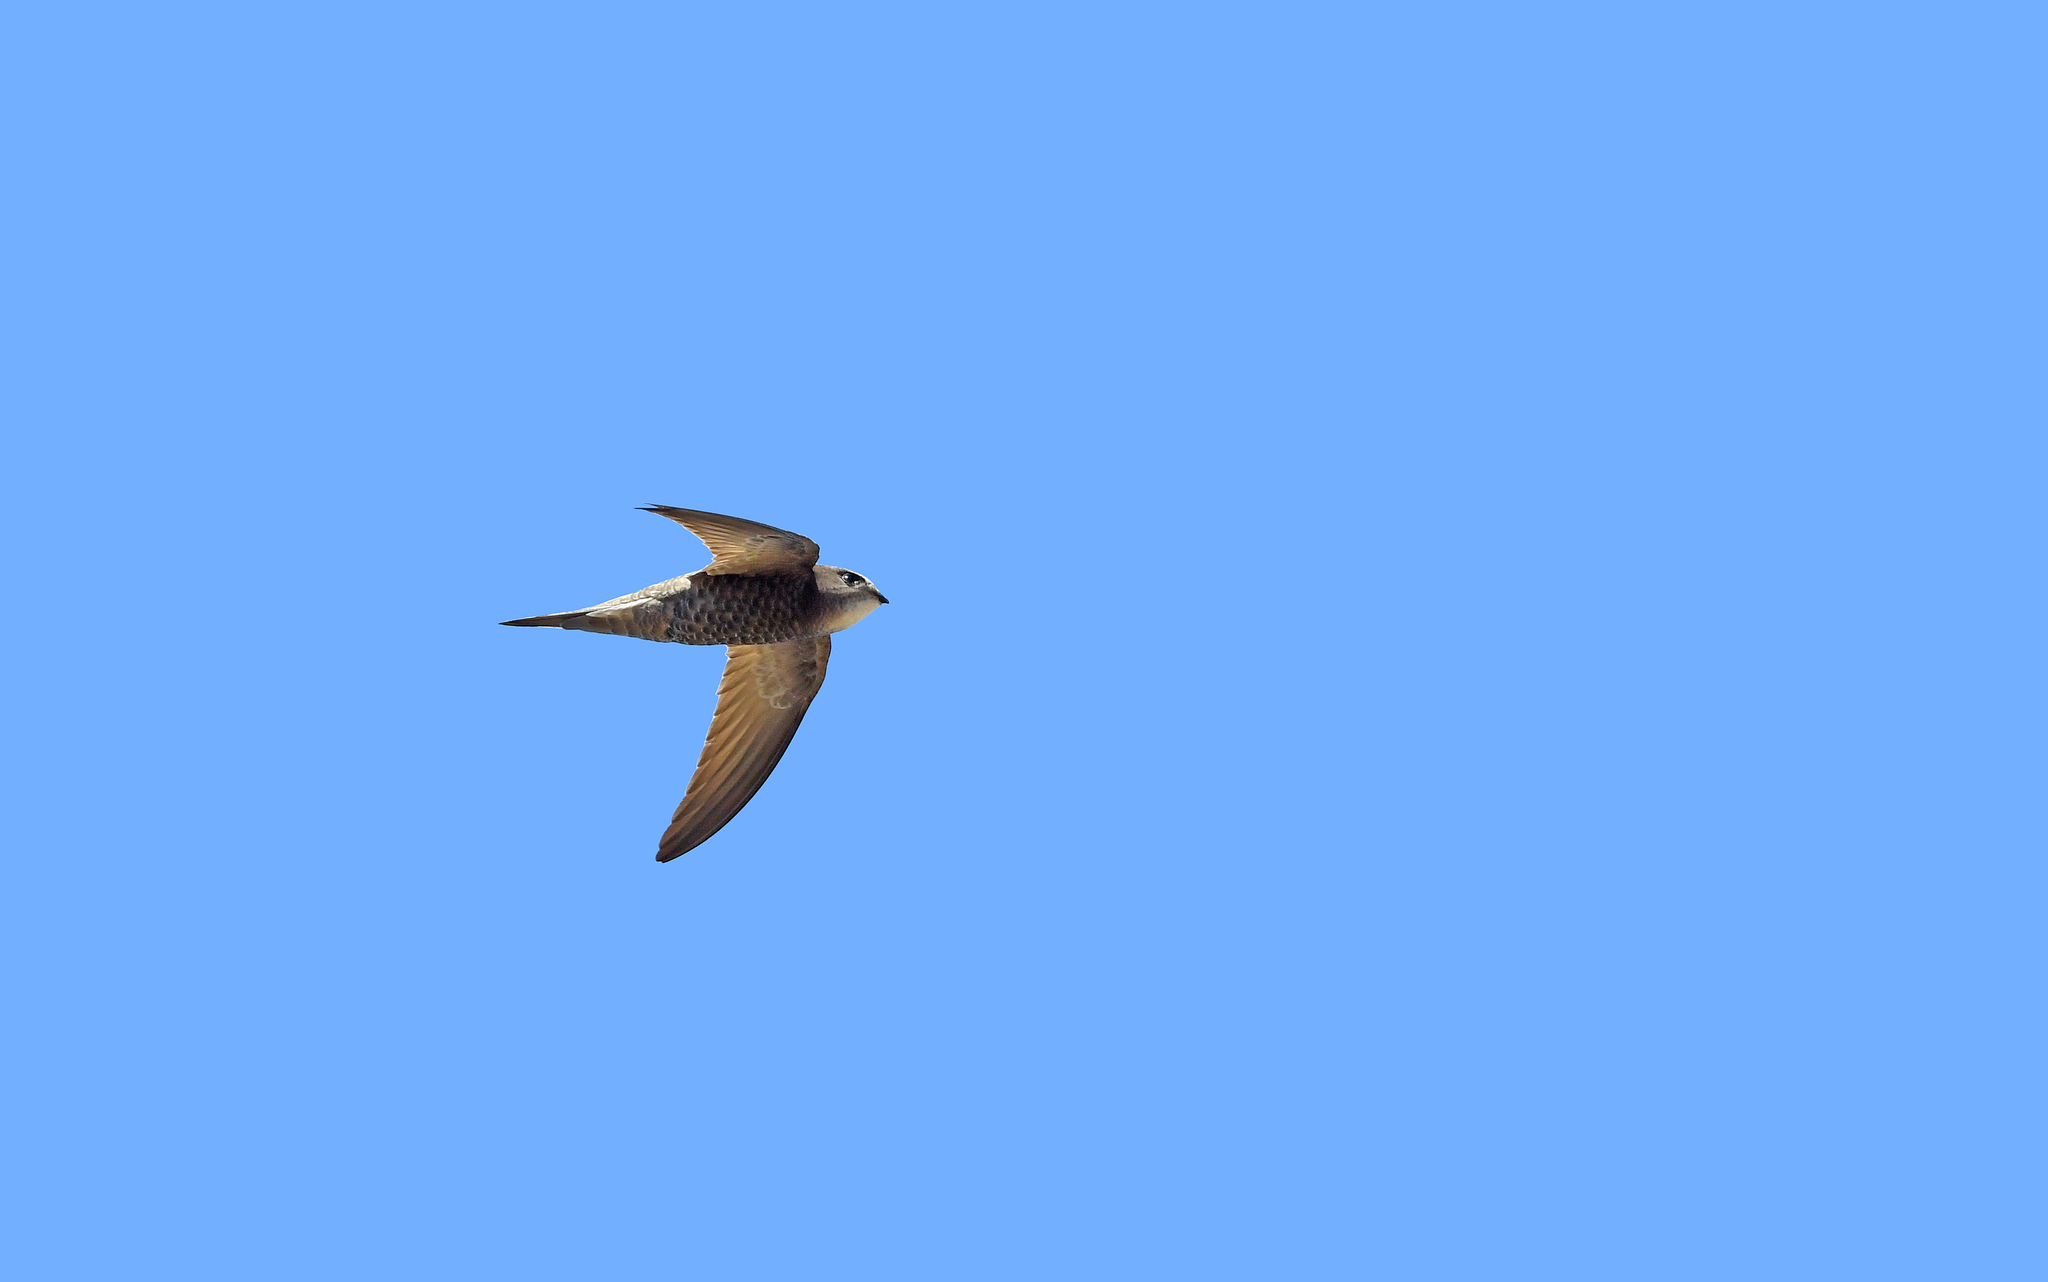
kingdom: Animalia
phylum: Chordata
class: Aves
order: Apodiformes
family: Apodidae
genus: Apus
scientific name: Apus pallidus
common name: Pallid swift
